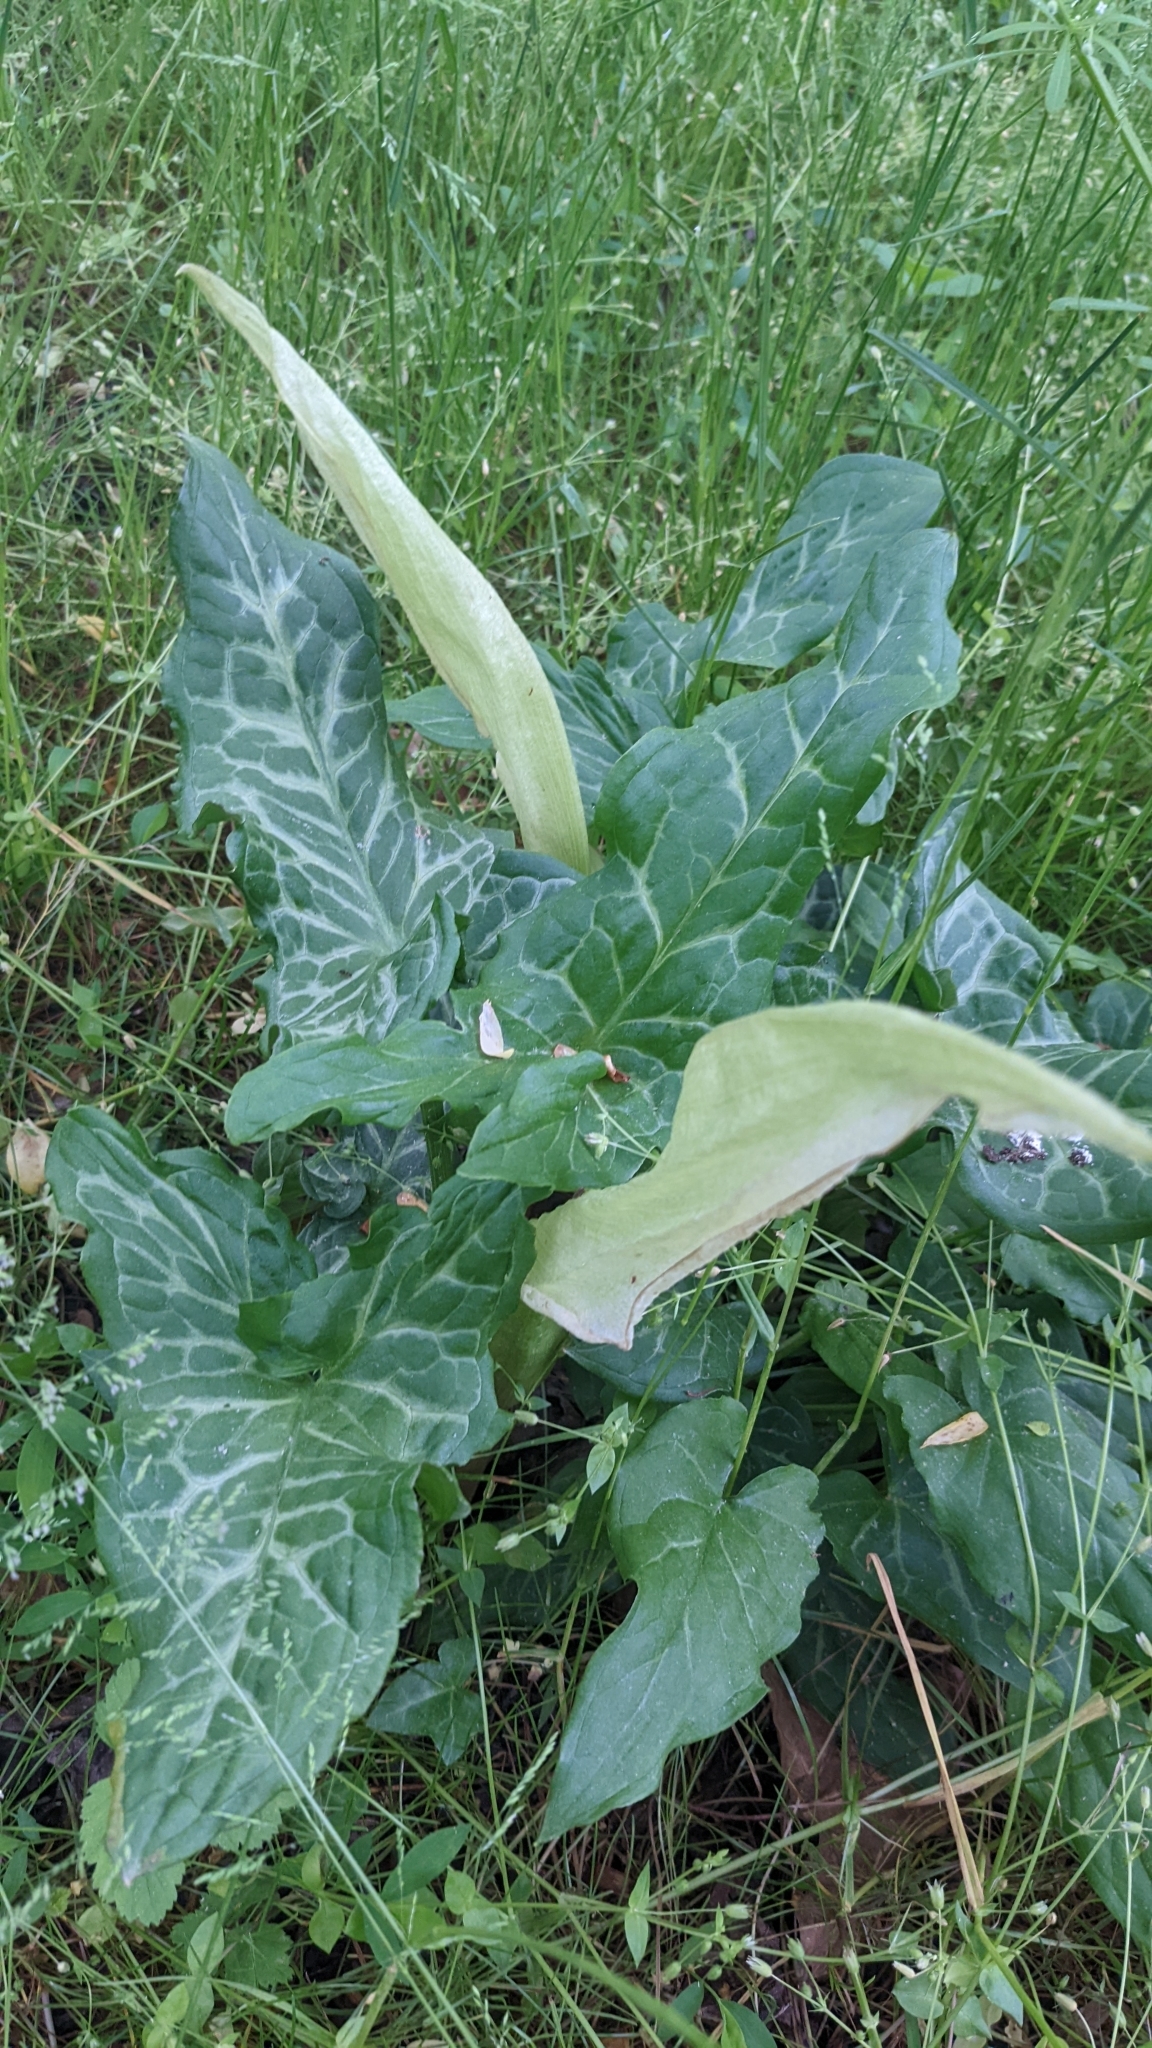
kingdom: Plantae
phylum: Tracheophyta
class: Liliopsida
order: Alismatales
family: Araceae
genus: Arum
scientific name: Arum italicum
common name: Italian lords-and-ladies
